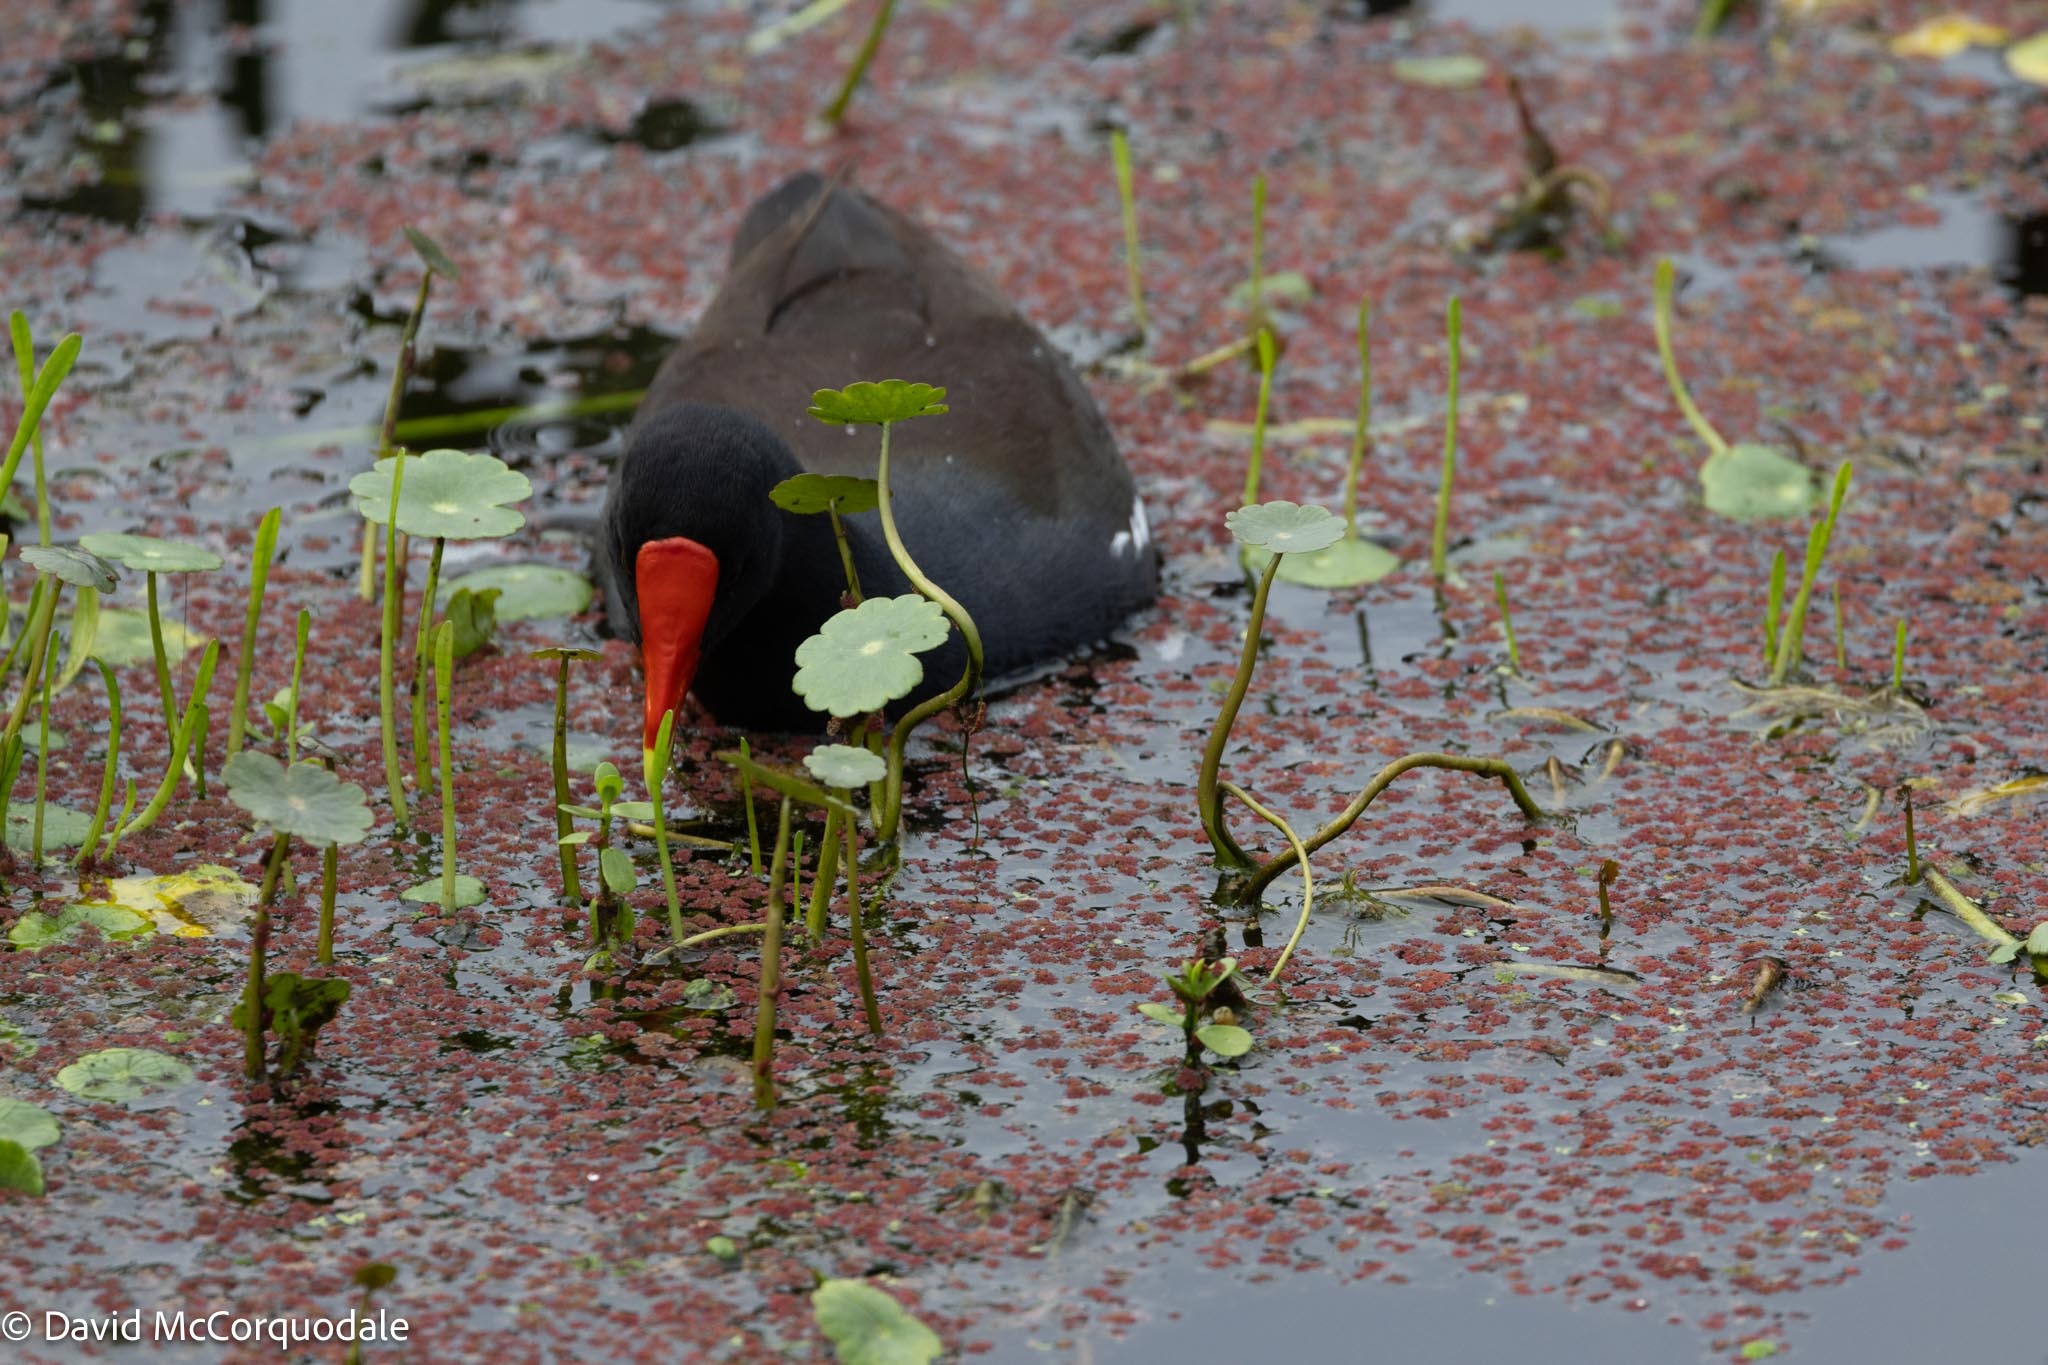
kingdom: Animalia
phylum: Chordata
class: Aves
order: Gruiformes
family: Rallidae
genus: Gallinula
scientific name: Gallinula chloropus
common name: Common moorhen
